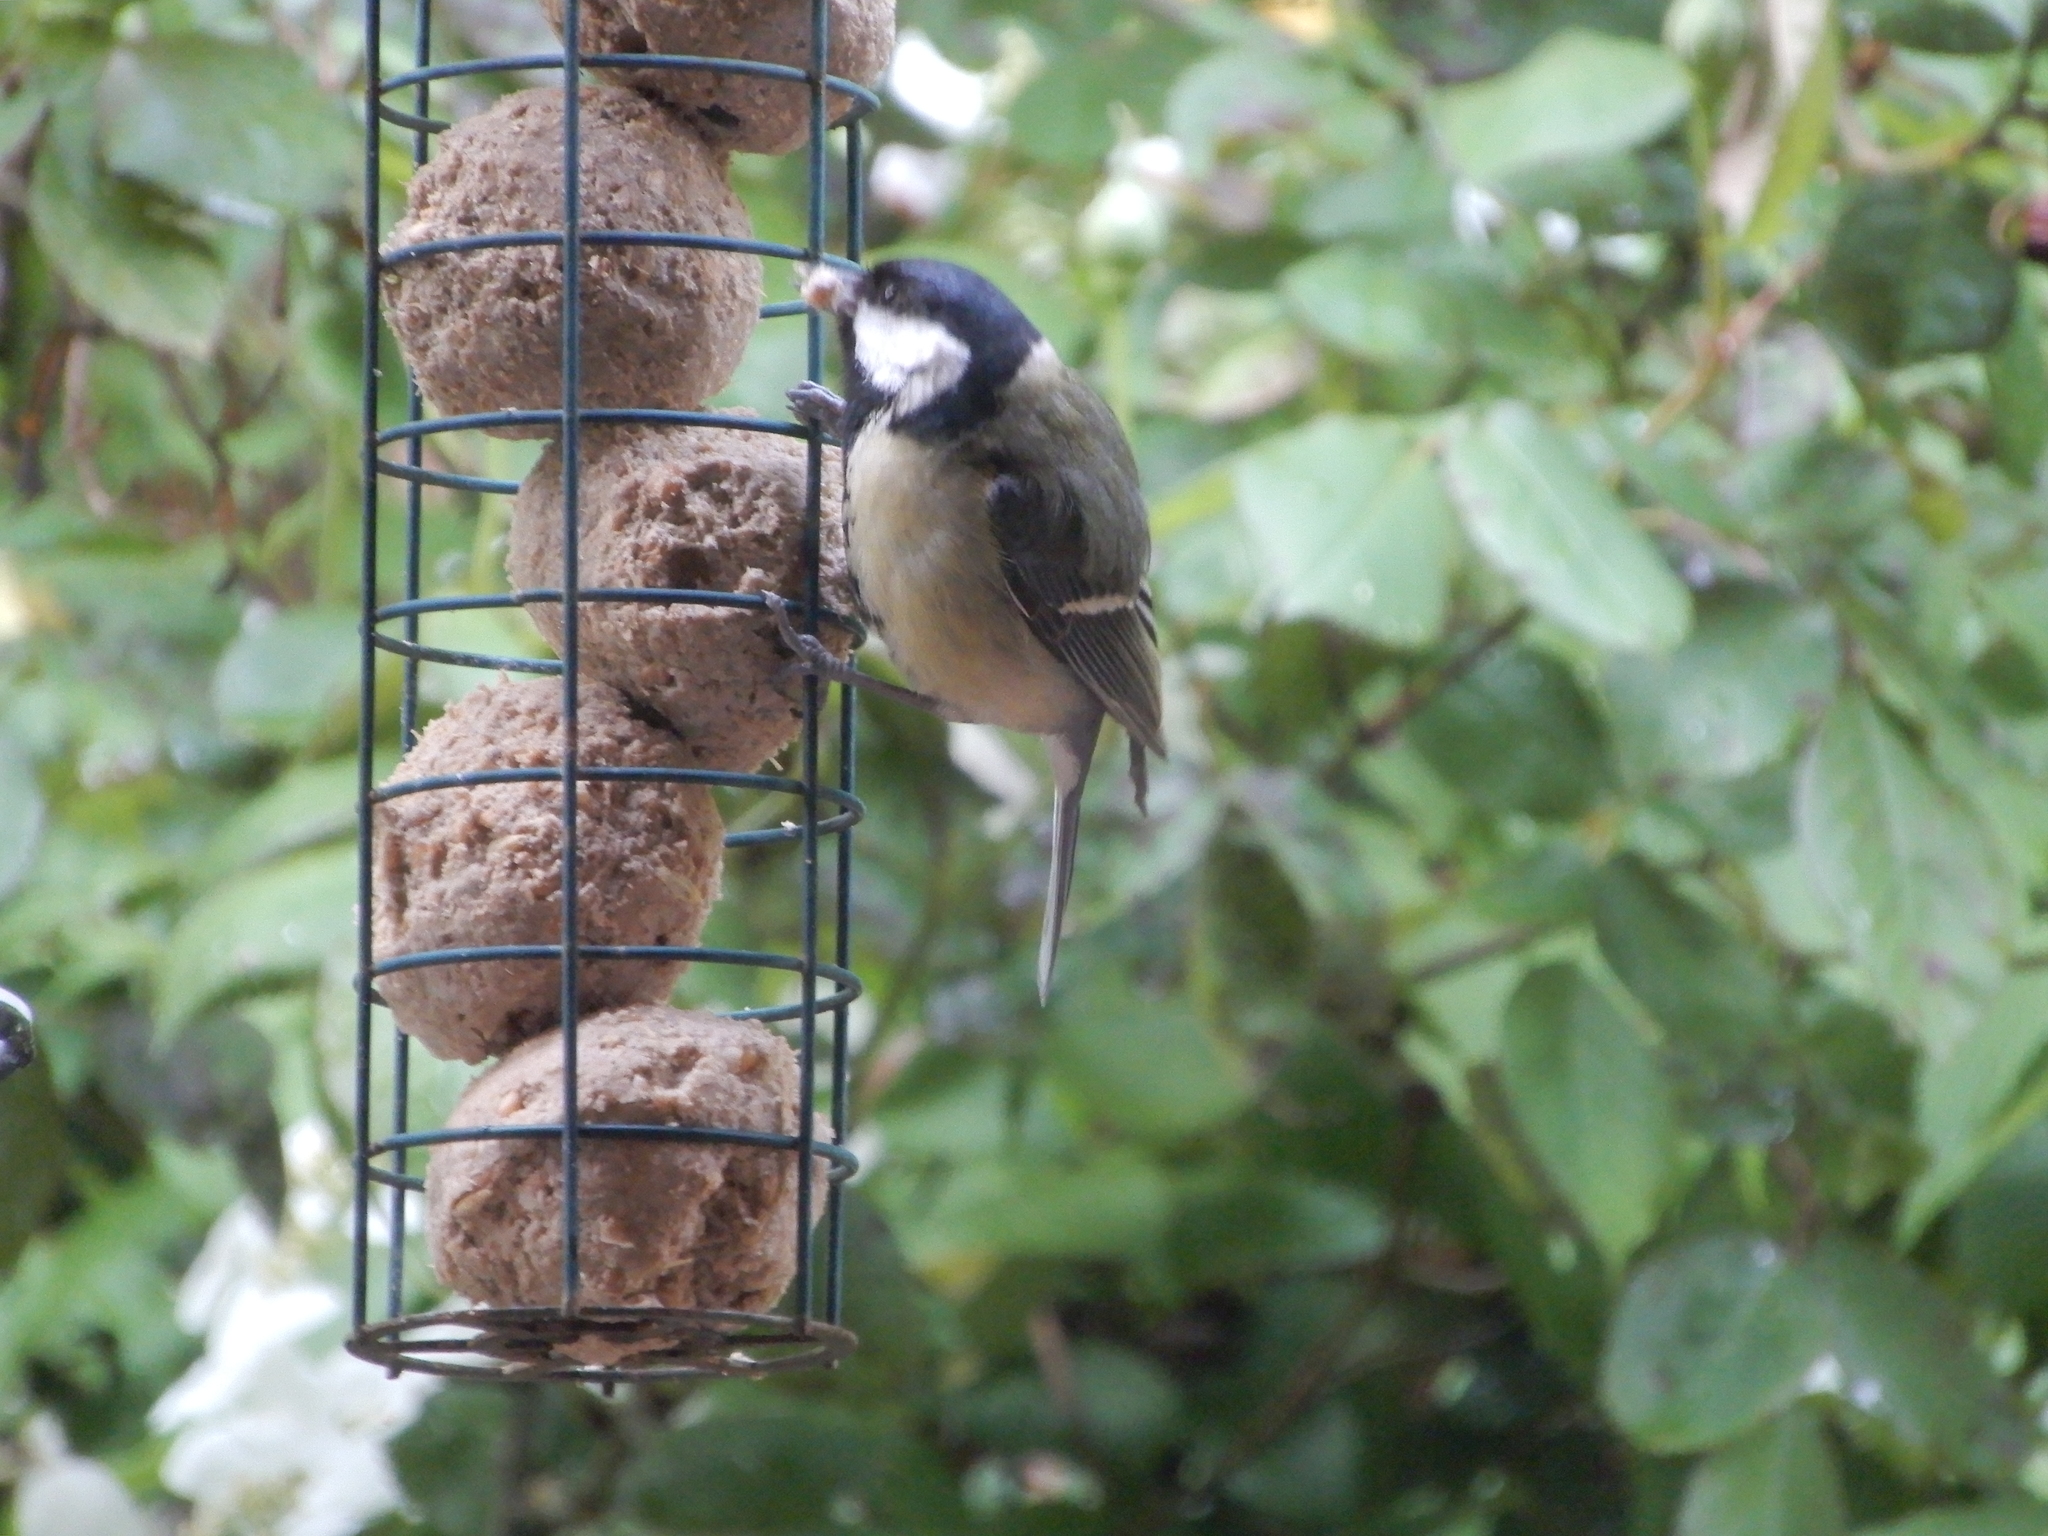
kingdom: Animalia
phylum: Chordata
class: Aves
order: Passeriformes
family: Paridae
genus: Parus
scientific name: Parus major
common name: Great tit
